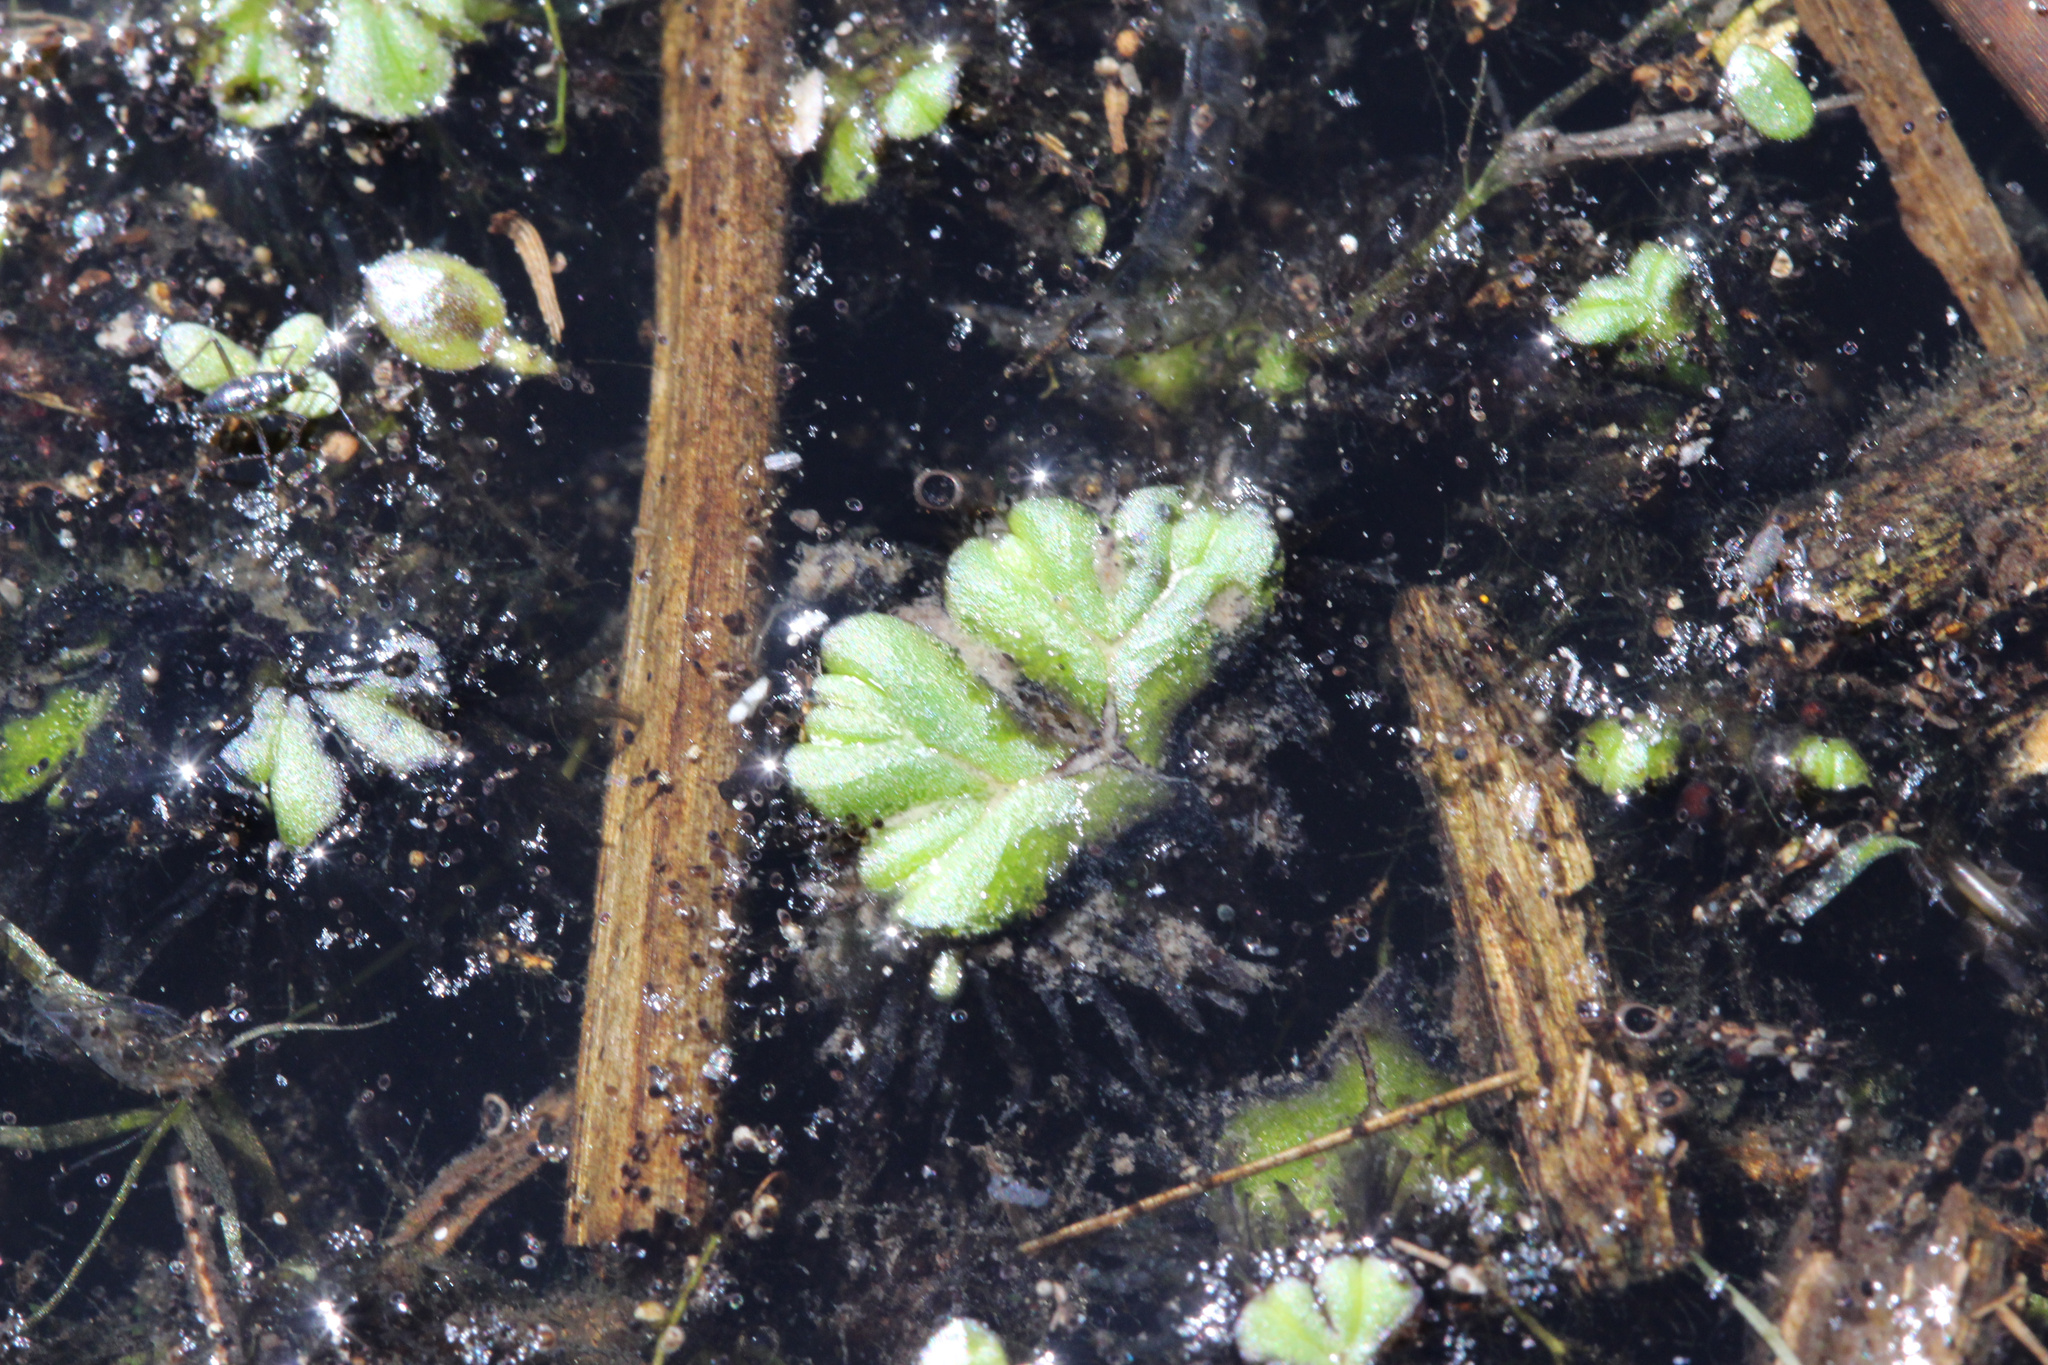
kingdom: Plantae
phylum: Marchantiophyta
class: Marchantiopsida
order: Marchantiales
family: Ricciaceae
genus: Ricciocarpos
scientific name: Ricciocarpos natans
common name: Purple-fringed liverwort
